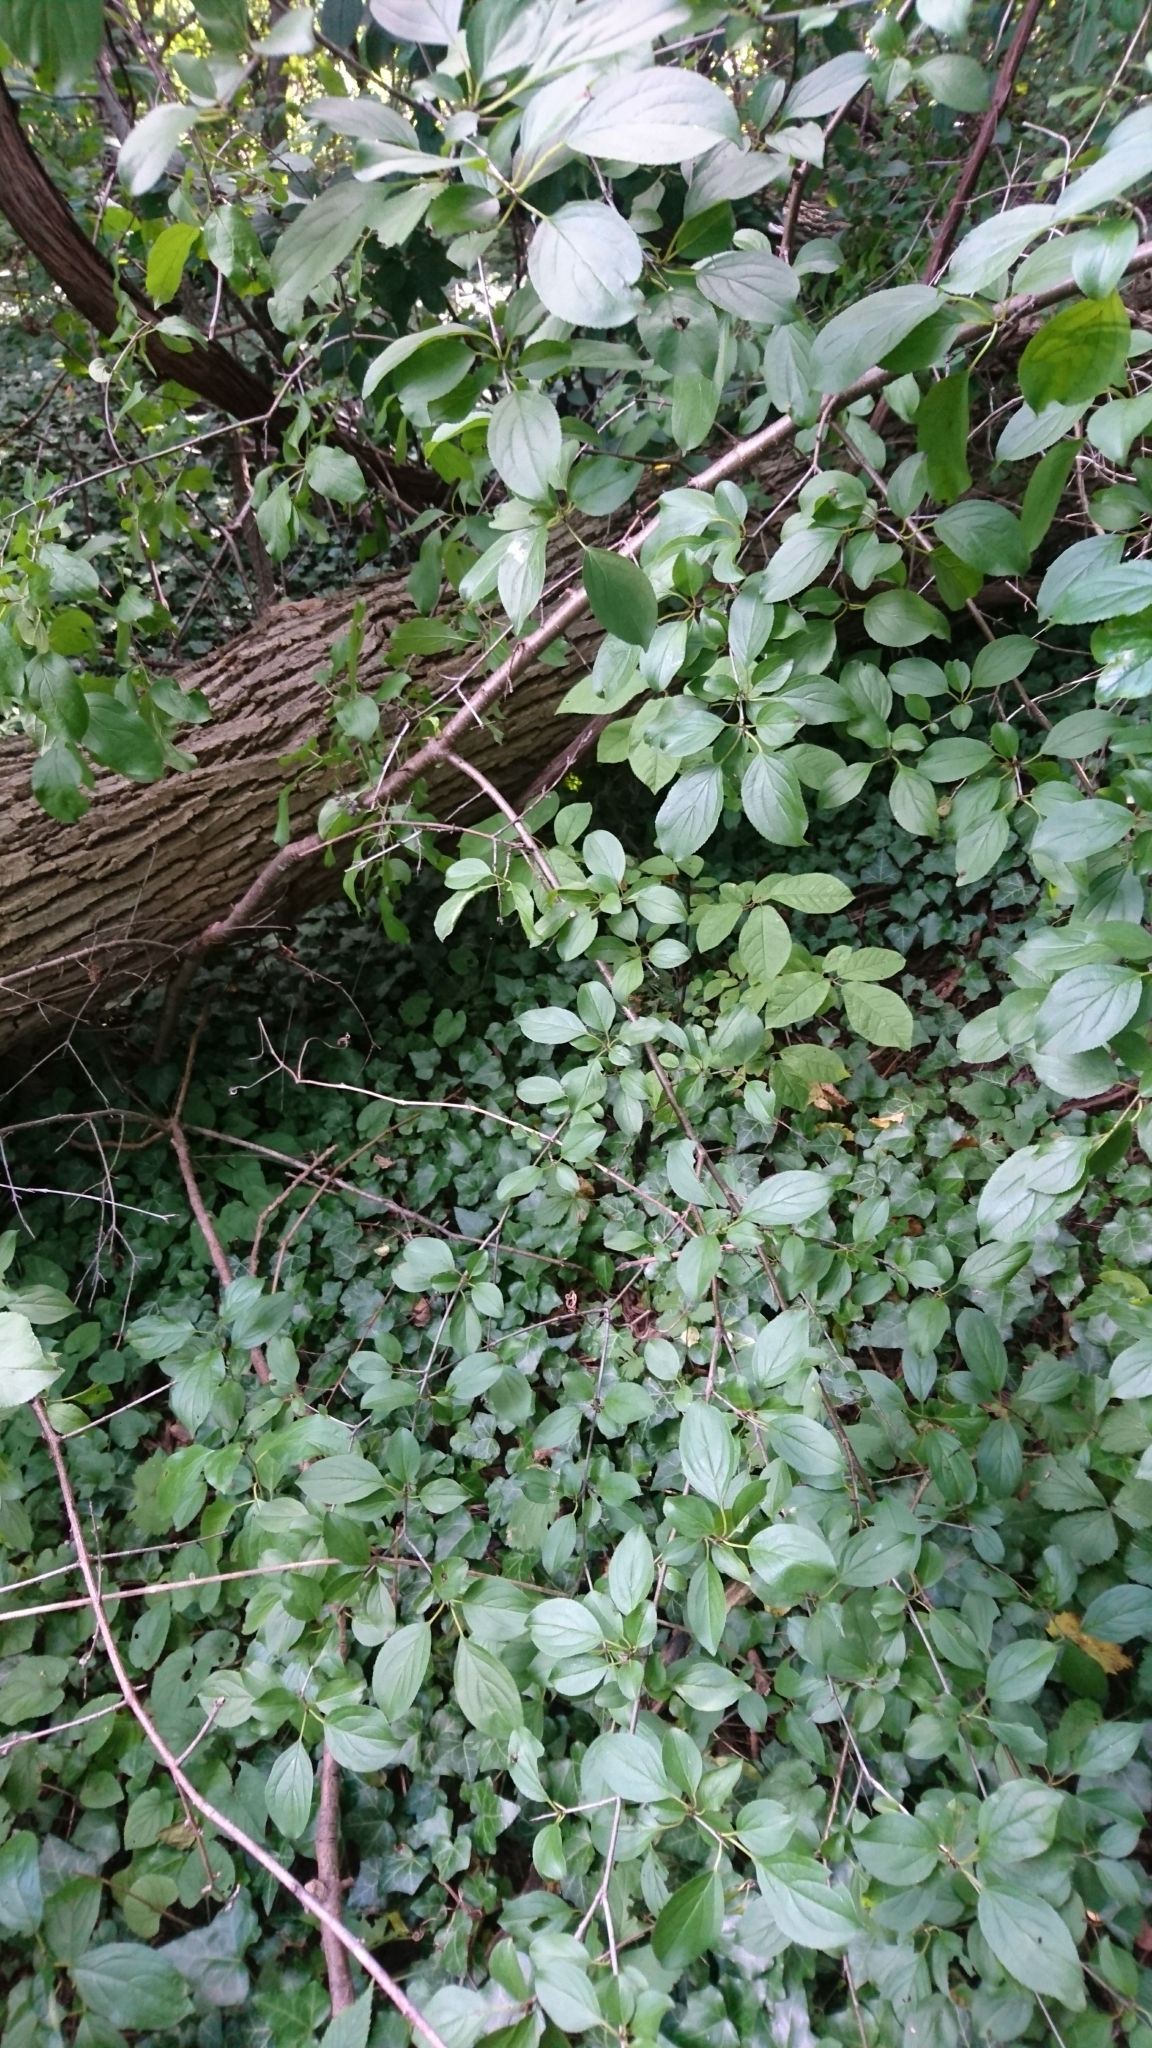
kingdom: Plantae
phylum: Tracheophyta
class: Magnoliopsida
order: Rosales
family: Rhamnaceae
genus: Rhamnus
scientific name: Rhamnus cathartica
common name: Common buckthorn
